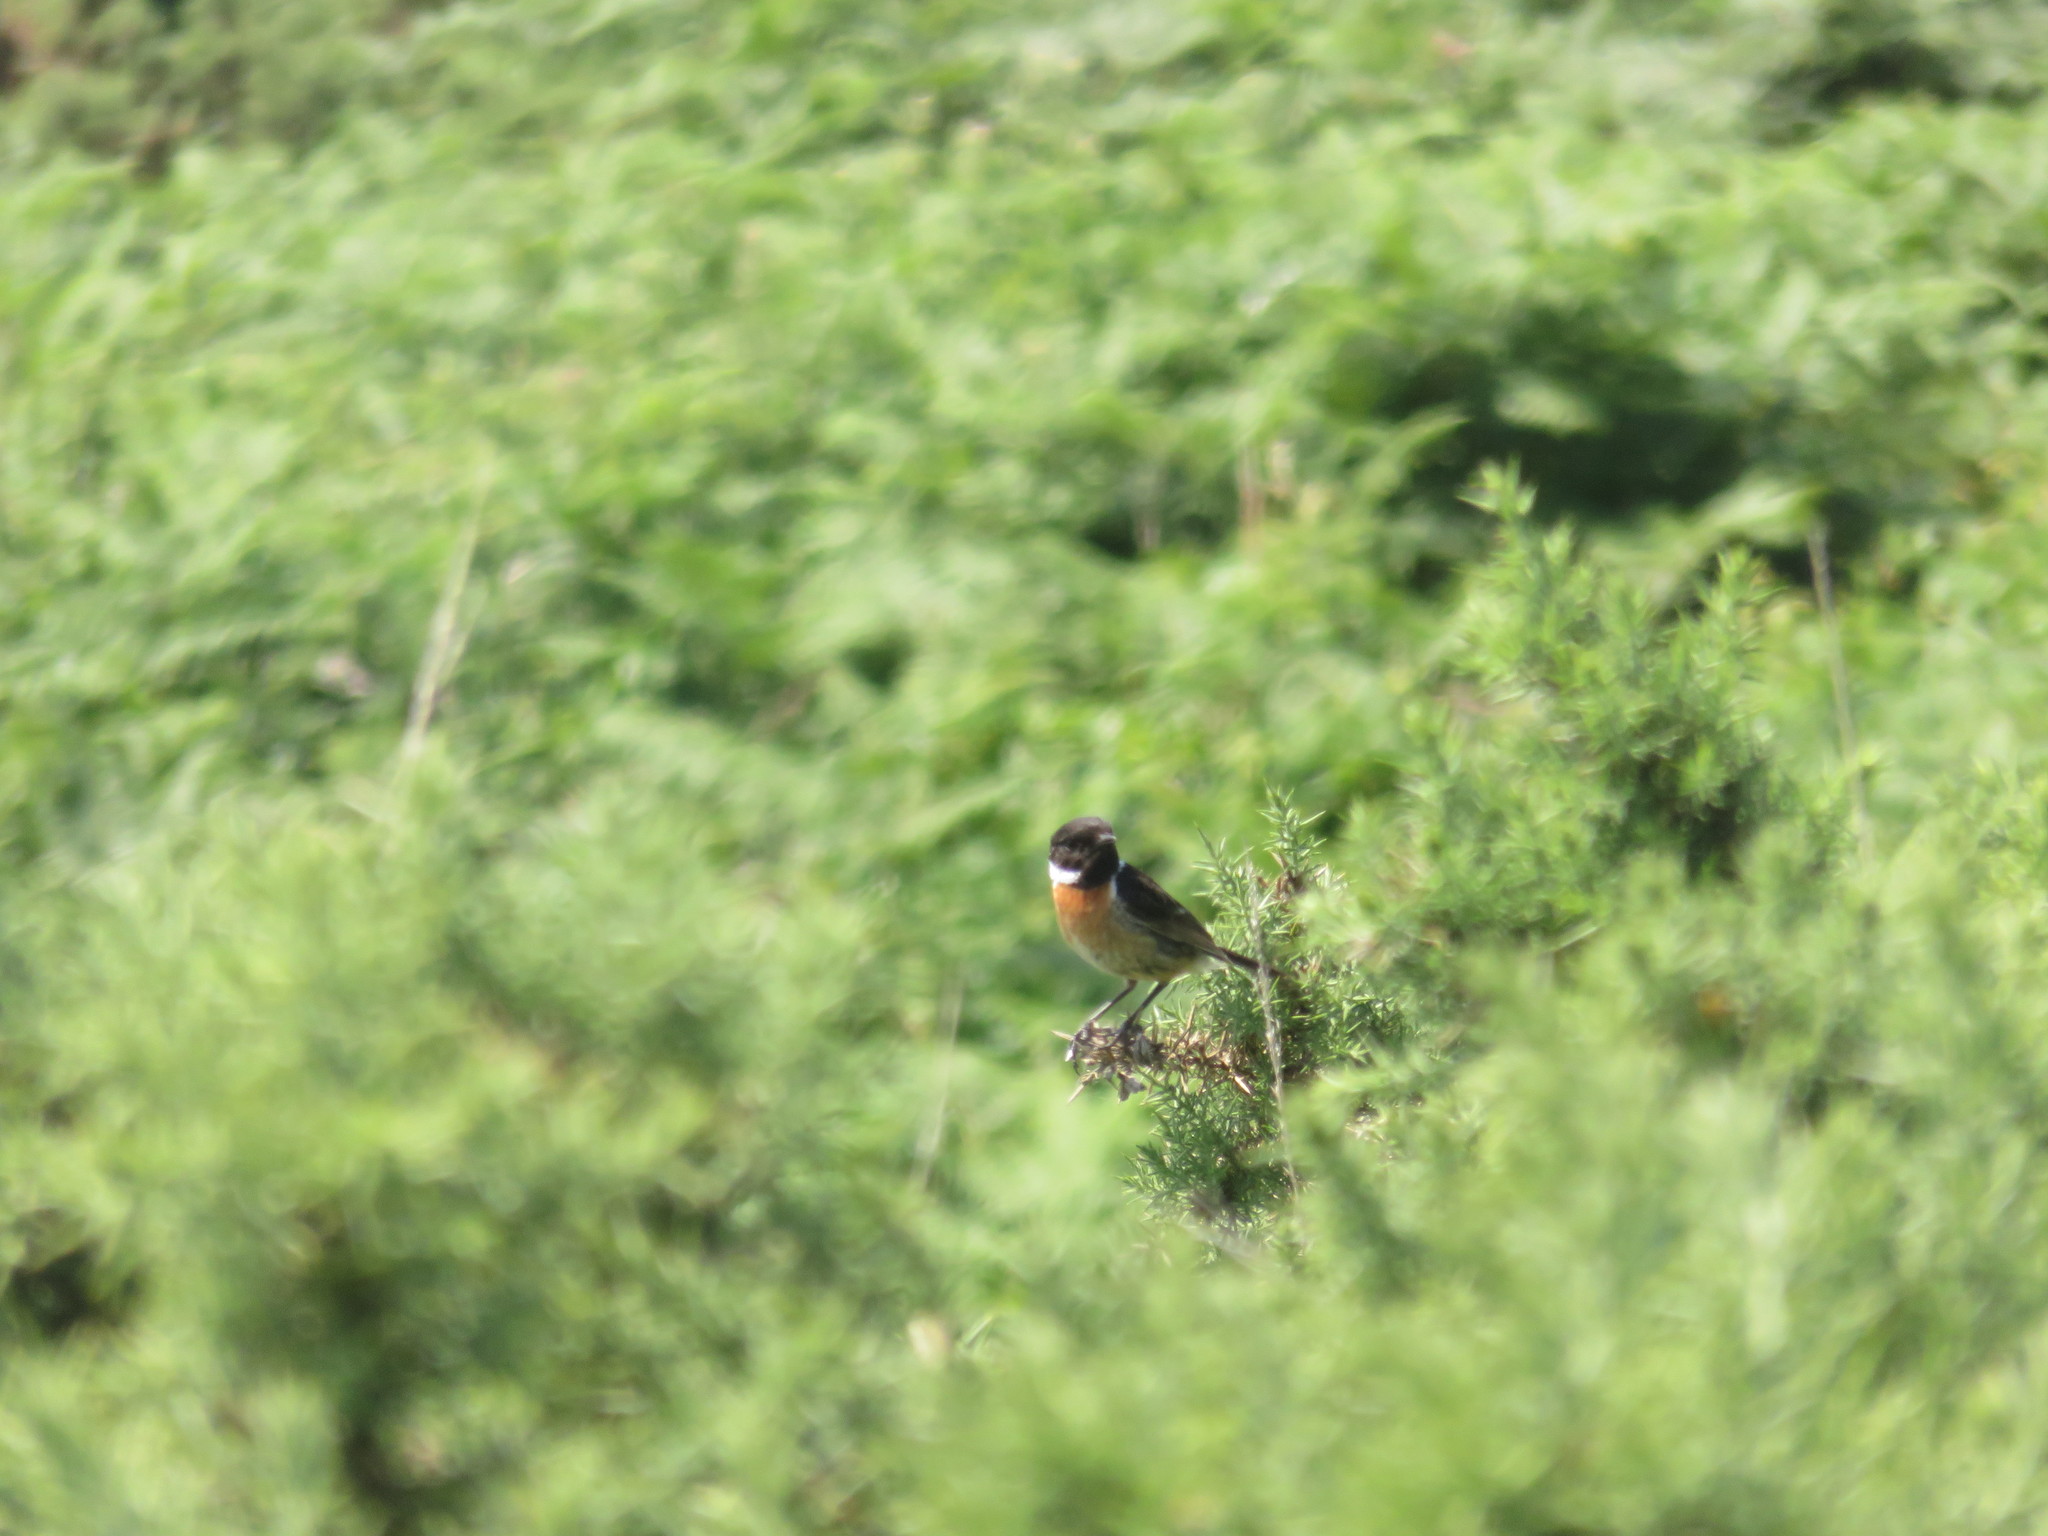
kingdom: Animalia
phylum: Chordata
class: Aves
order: Passeriformes
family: Muscicapidae
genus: Saxicola
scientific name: Saxicola rubicola
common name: European stonechat
